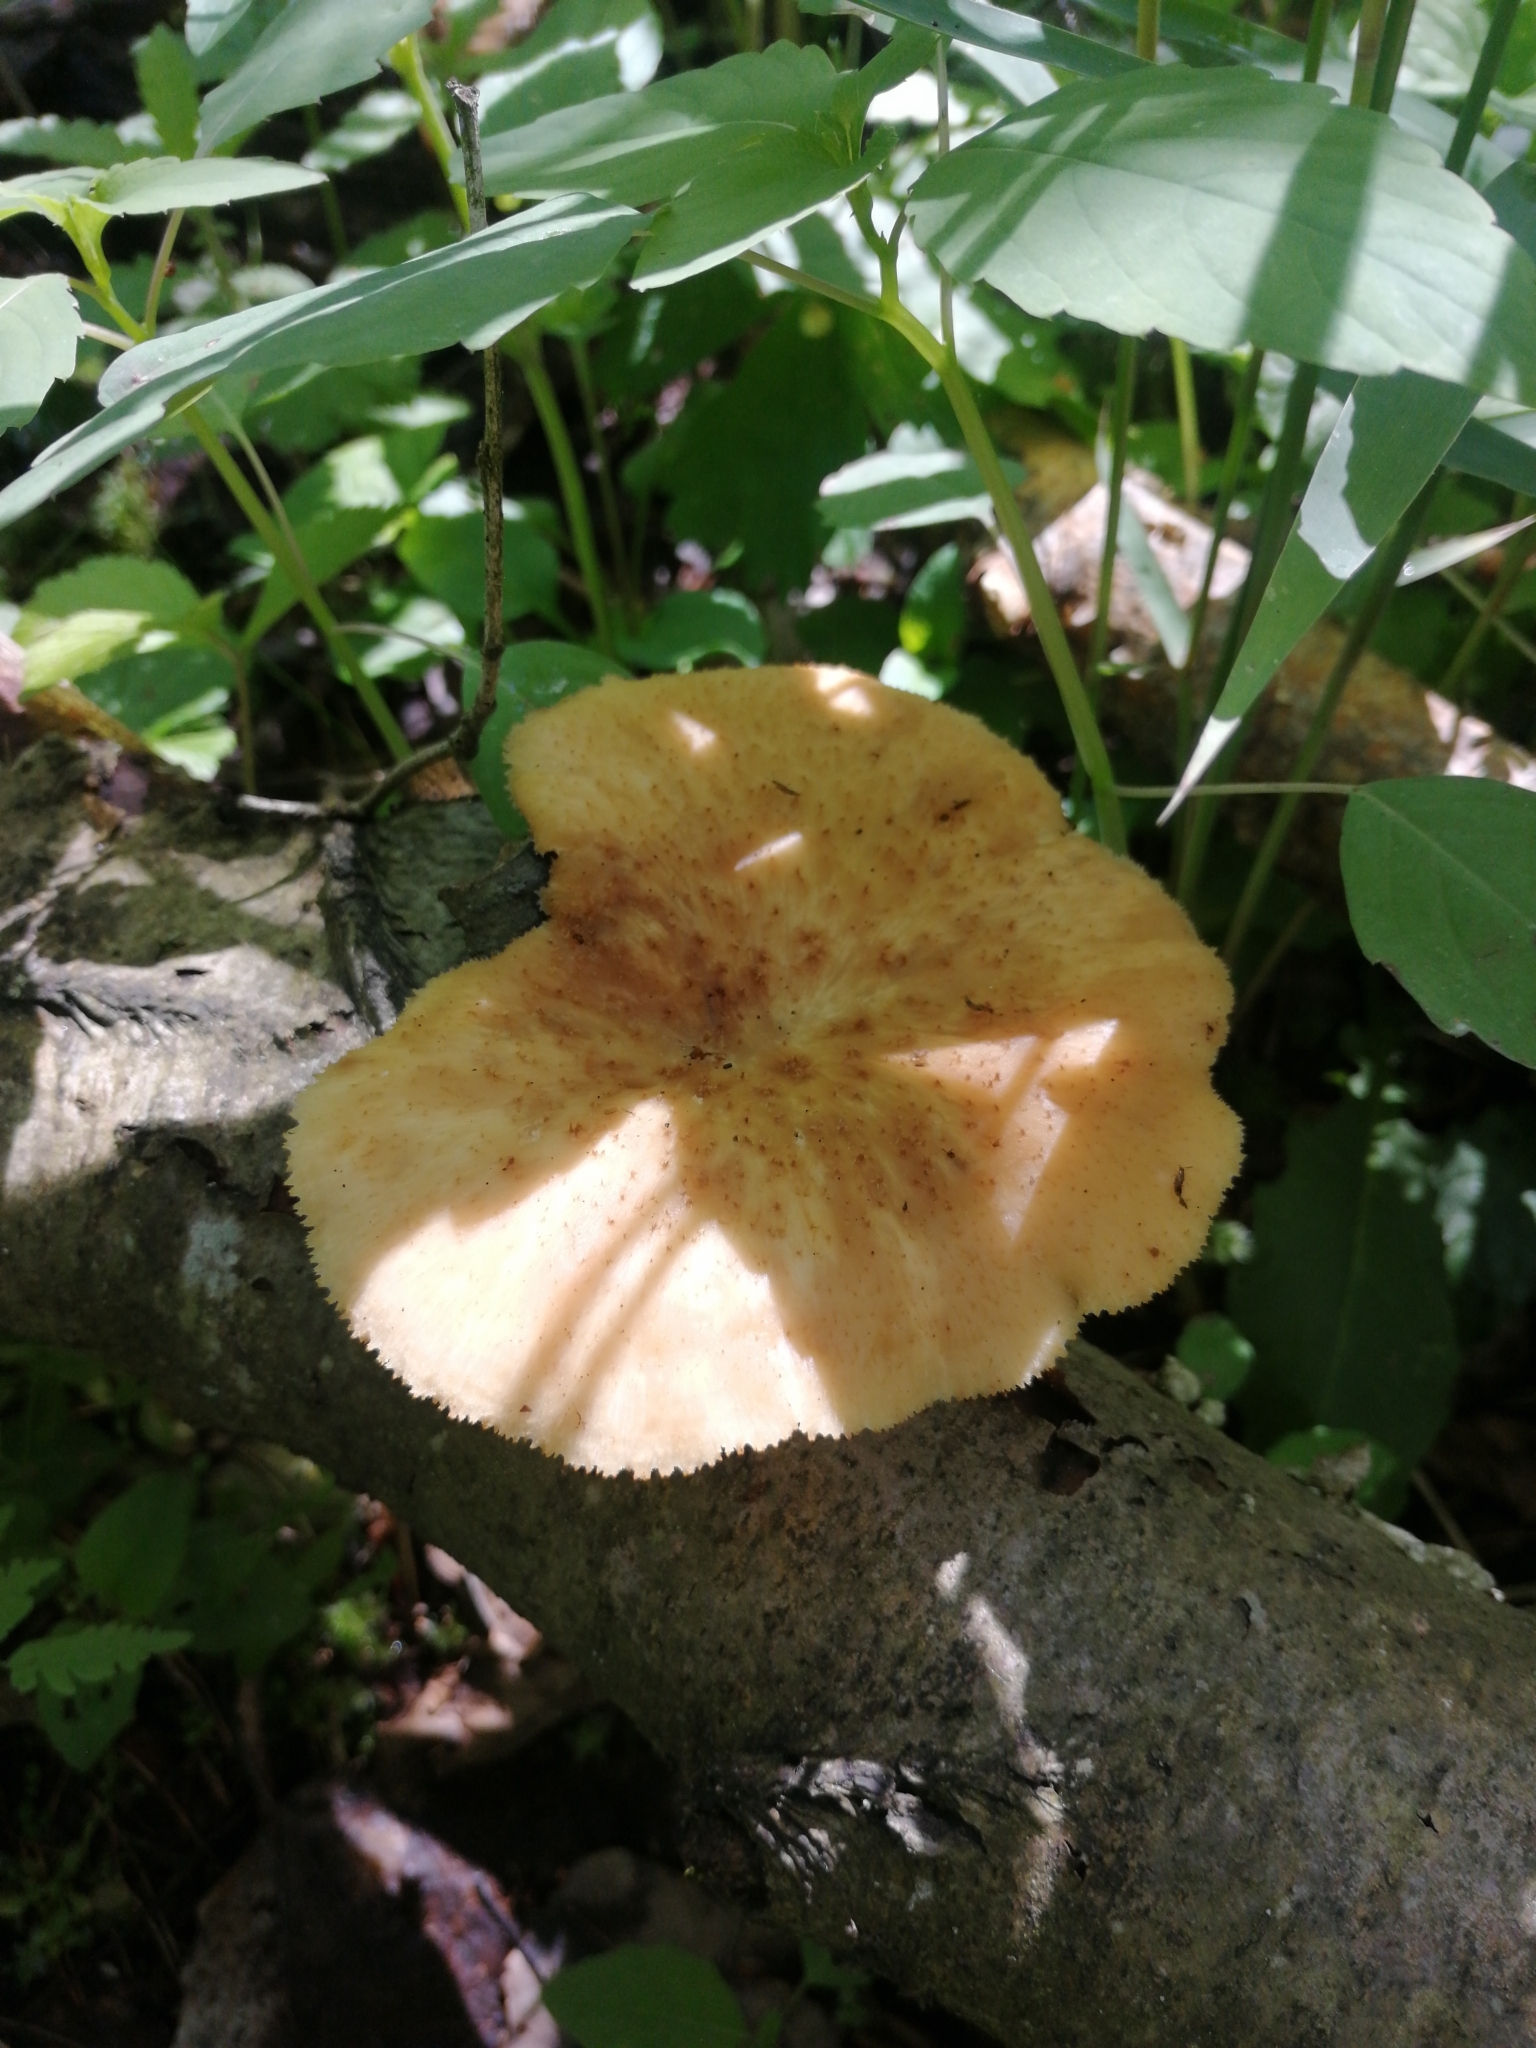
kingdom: Fungi
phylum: Basidiomycota
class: Agaricomycetes
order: Polyporales
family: Polyporaceae
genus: Polyporus
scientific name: Polyporus tuberaster
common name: Tuberous polypore
